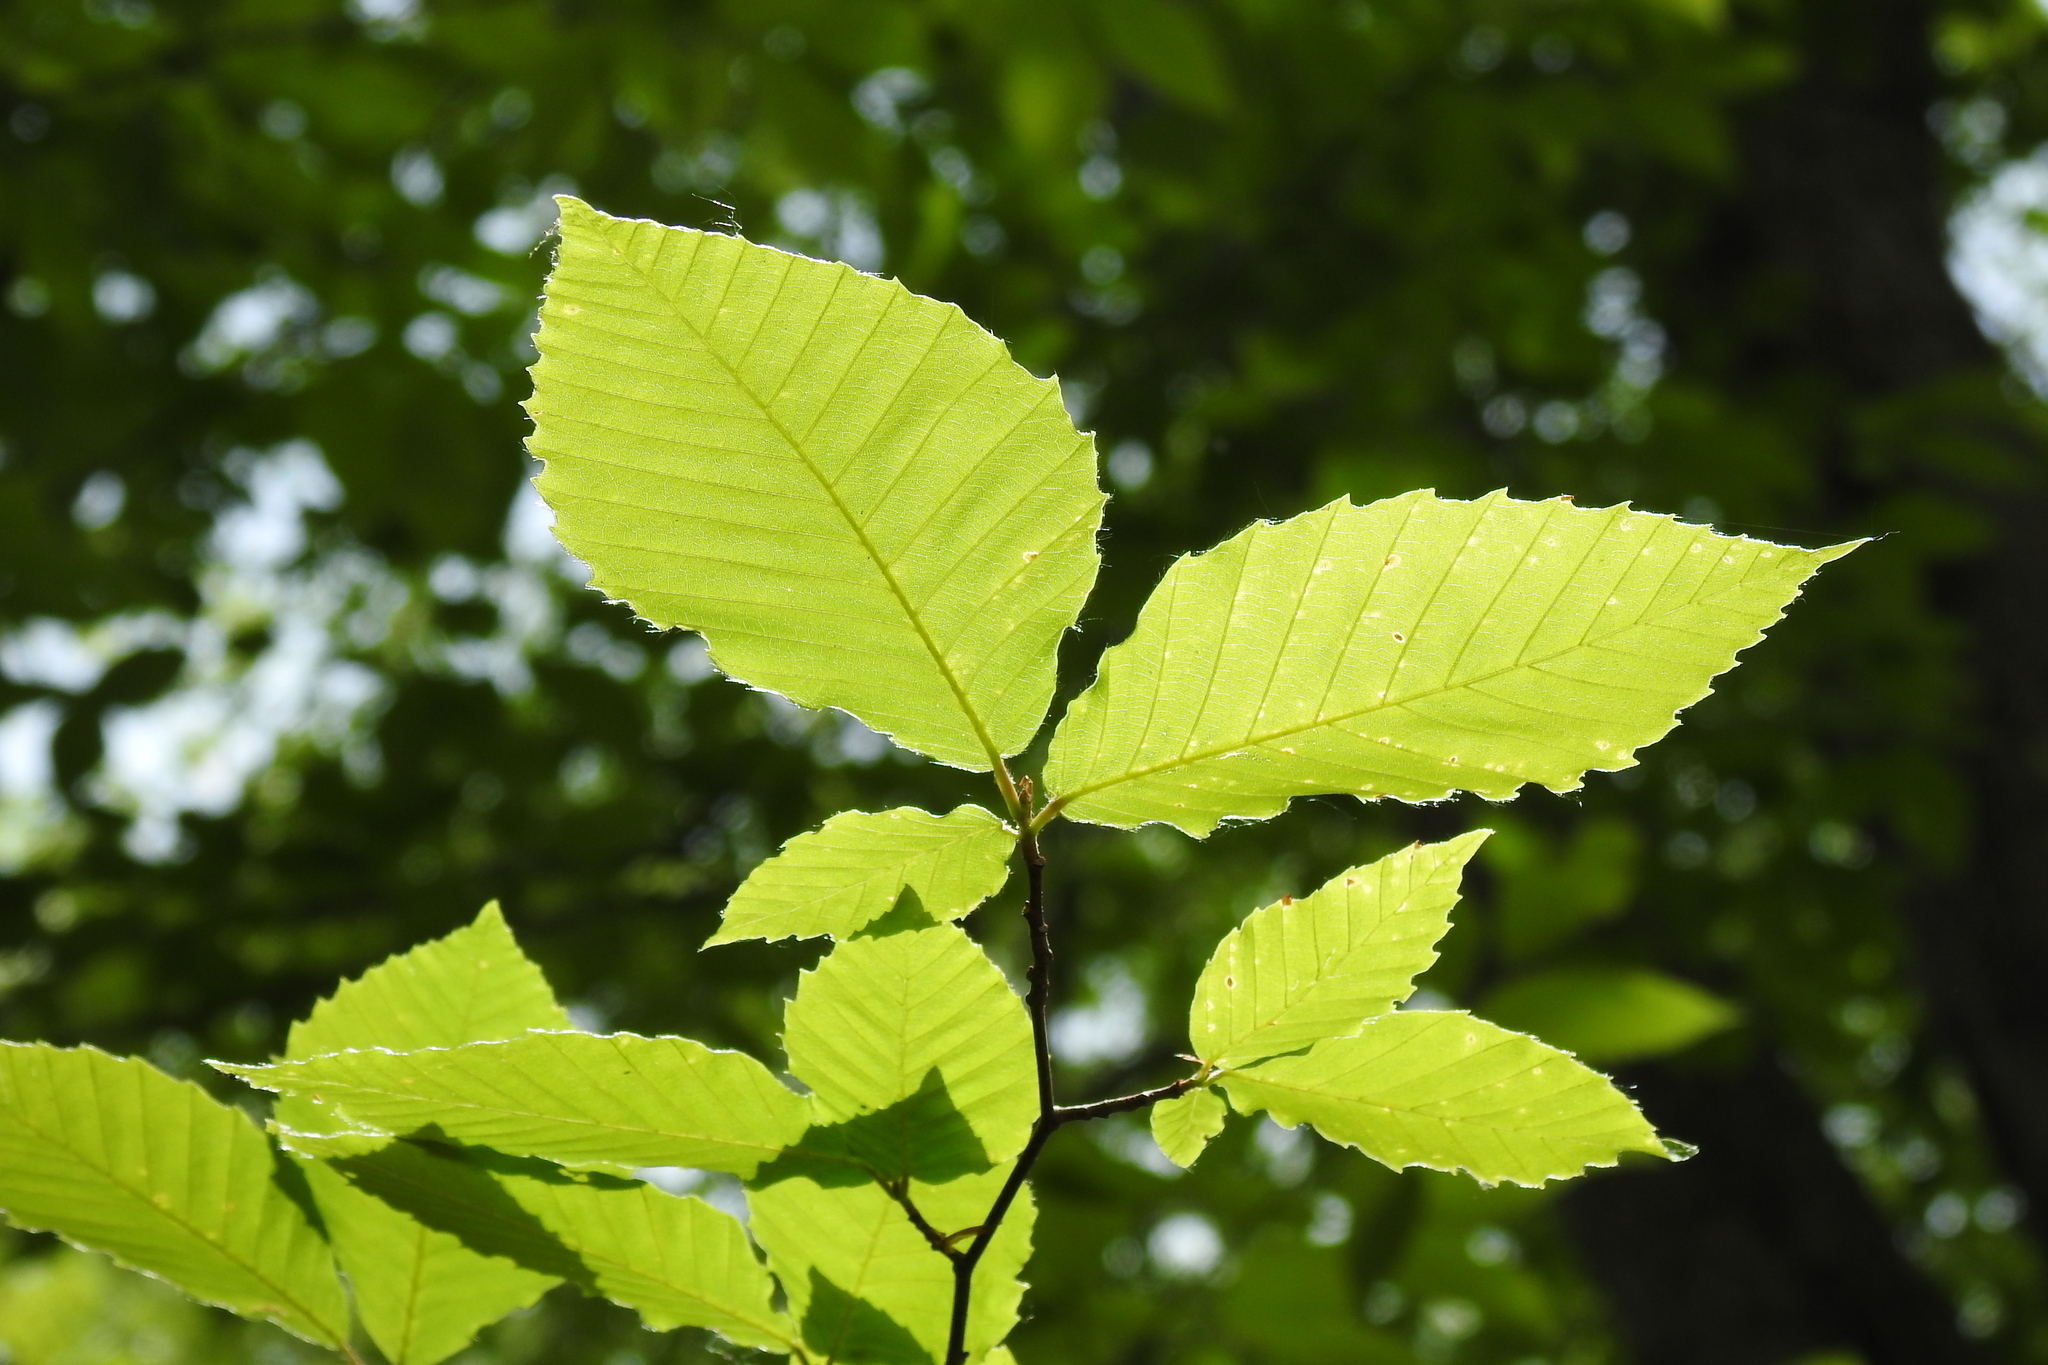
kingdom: Plantae
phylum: Tracheophyta
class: Magnoliopsida
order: Fagales
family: Fagaceae
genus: Fagus
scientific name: Fagus grandifolia
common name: American beech
